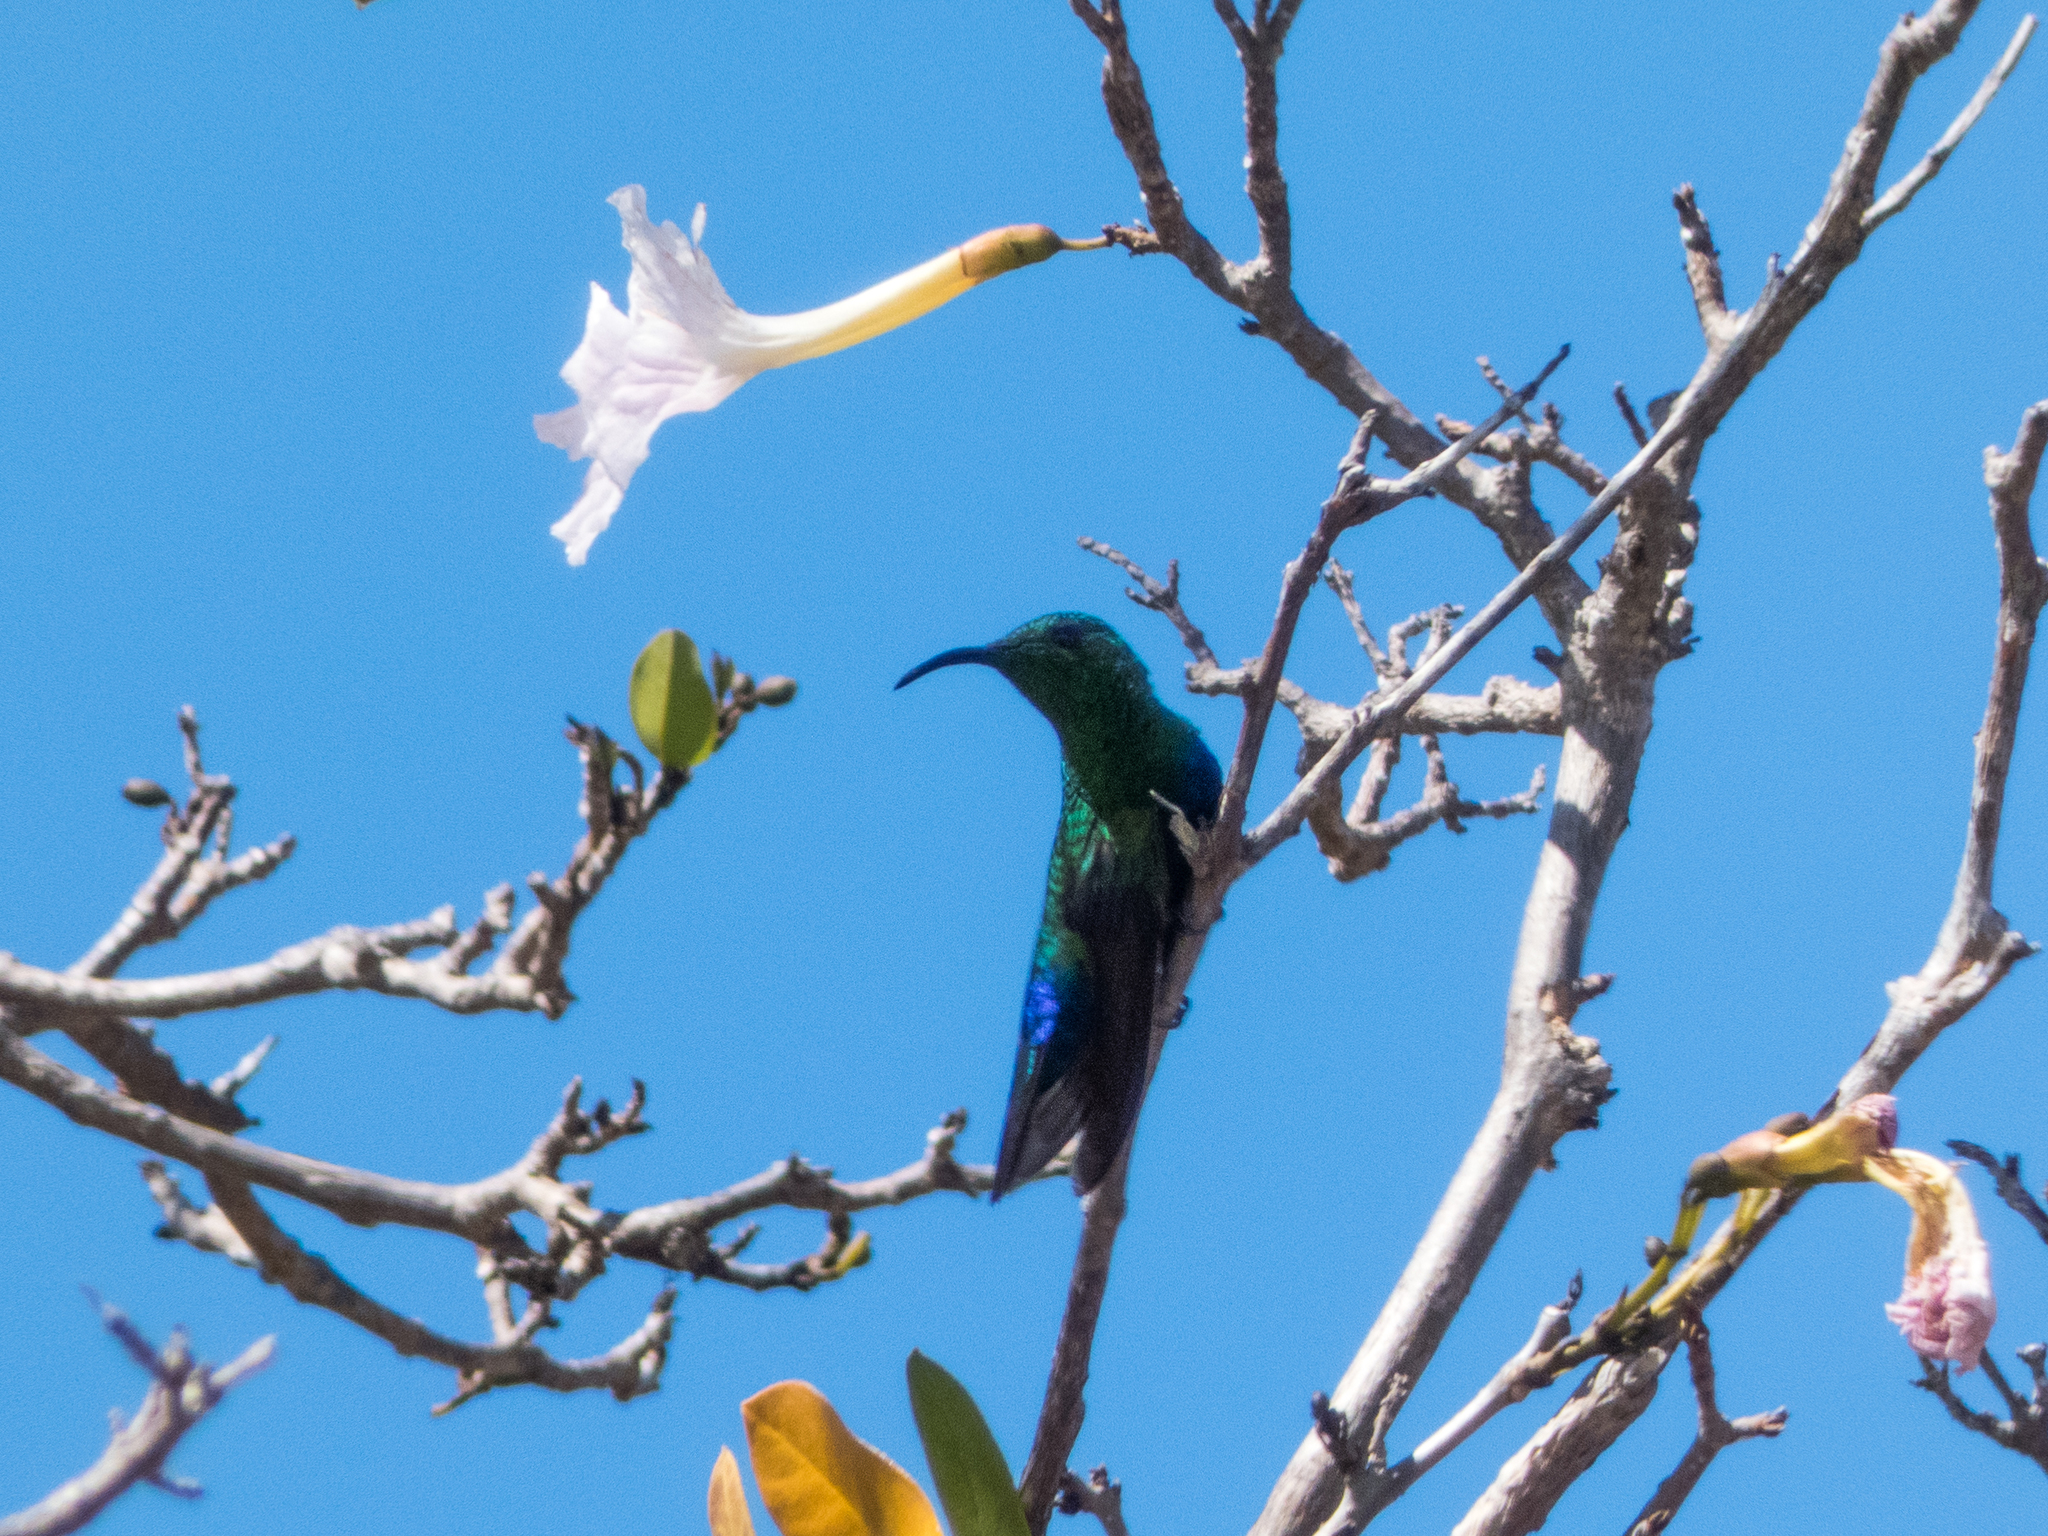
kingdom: Animalia
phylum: Chordata
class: Aves
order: Apodiformes
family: Trochilidae
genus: Eulampis
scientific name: Eulampis holosericeus
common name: Green-throated carib
